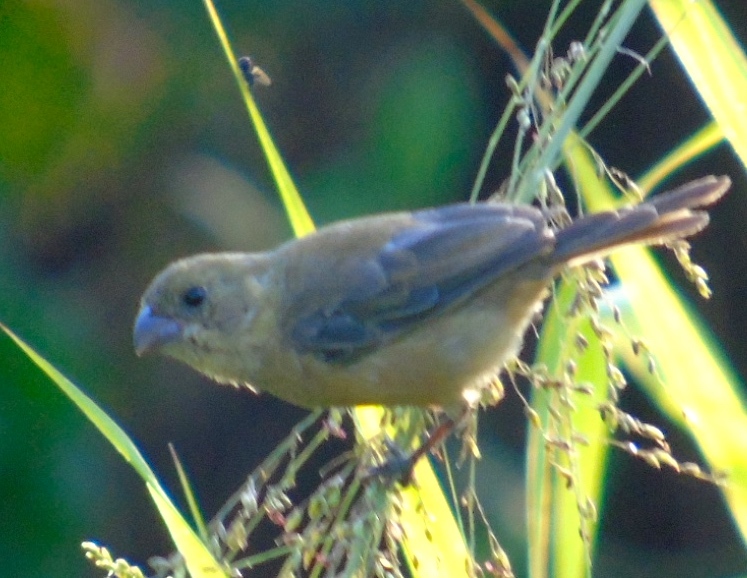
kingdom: Animalia
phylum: Chordata
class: Aves
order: Passeriformes
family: Thraupidae
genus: Sporophila
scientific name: Sporophila torqueola
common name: White-collared seedeater
